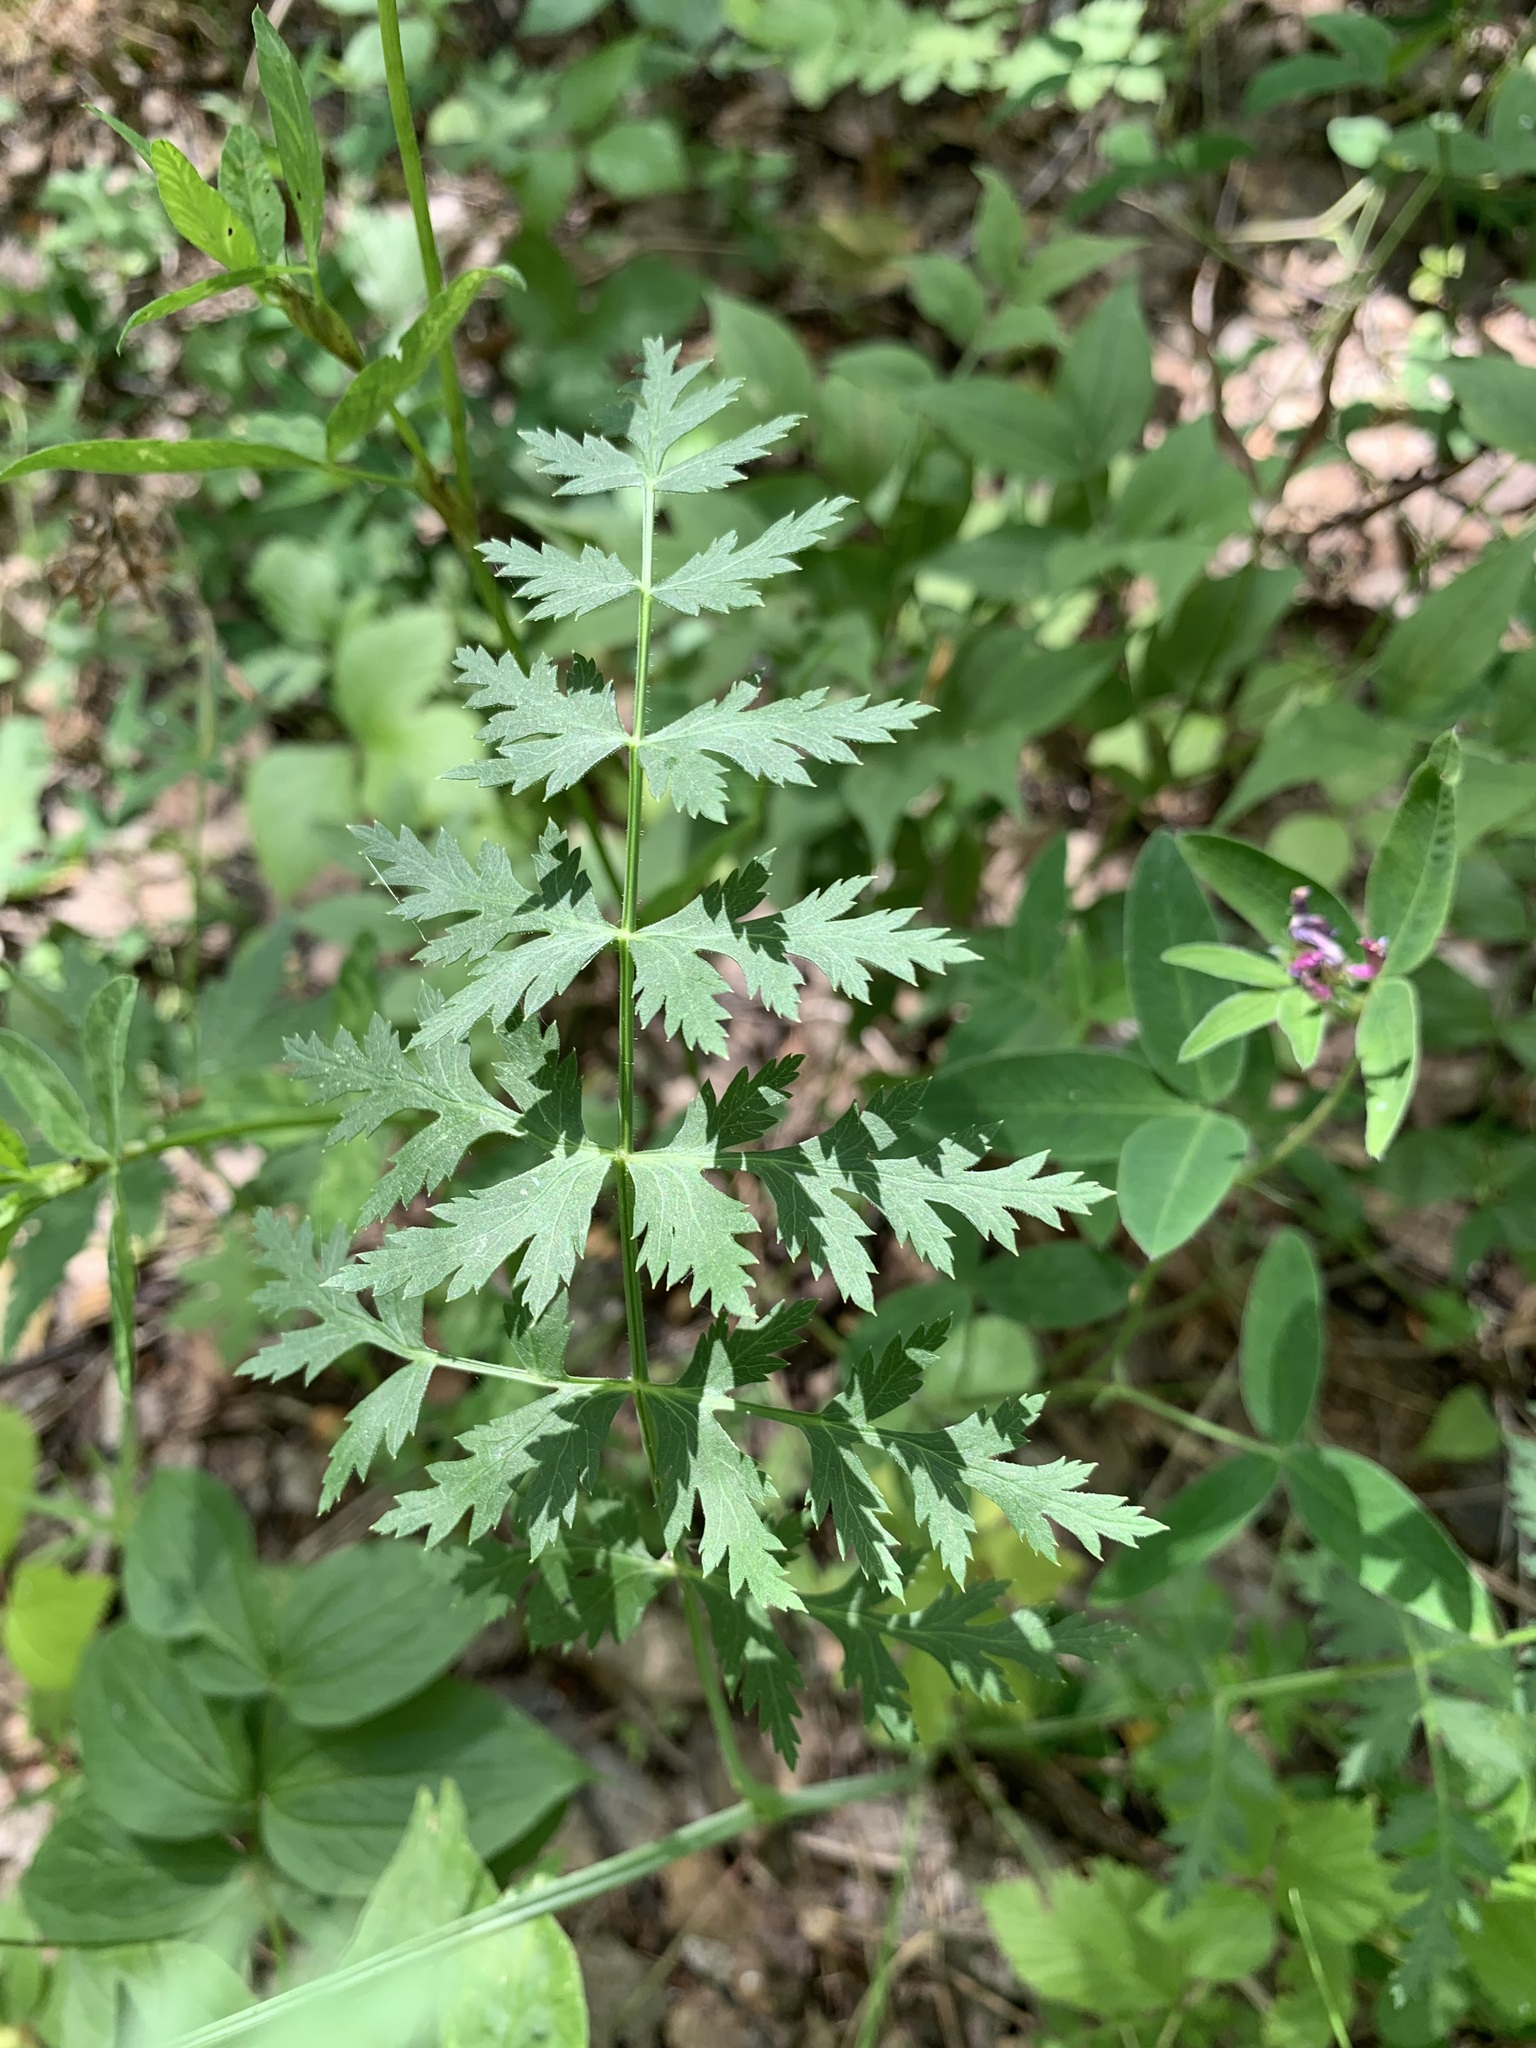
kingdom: Plantae
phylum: Tracheophyta
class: Magnoliopsida
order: Apiales
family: Apiaceae
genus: Seseli
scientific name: Seseli libanotis
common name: Mooncarrot
